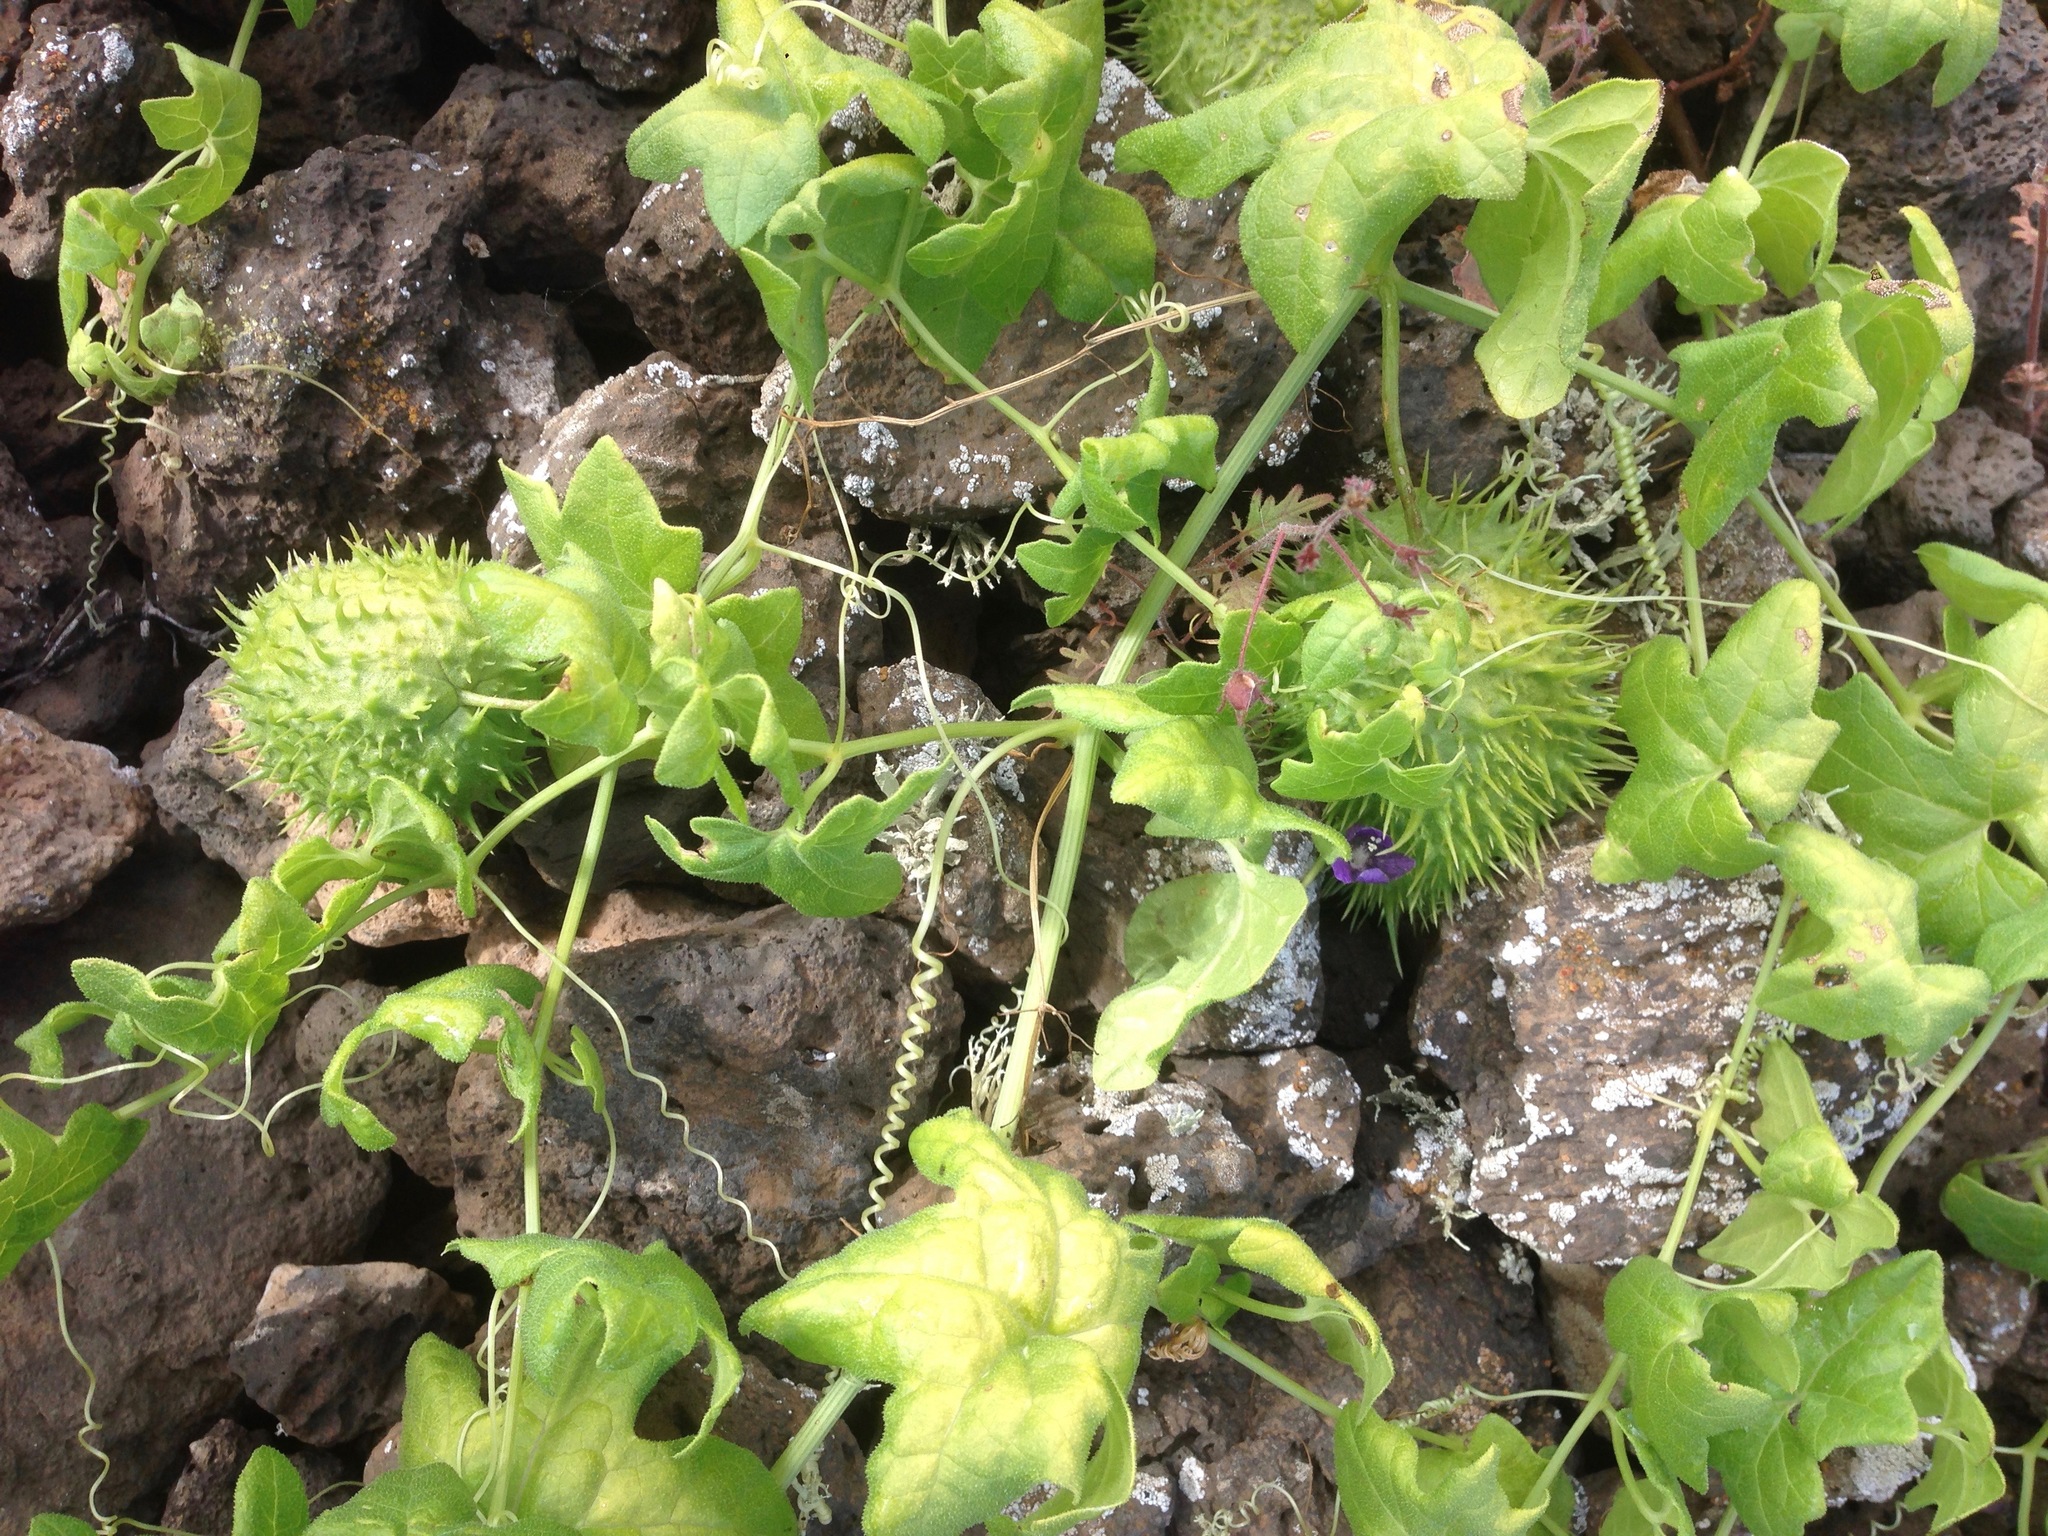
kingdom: Plantae
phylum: Tracheophyta
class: Magnoliopsida
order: Cucurbitales
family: Cucurbitaceae
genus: Marah
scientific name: Marah macrocarpa
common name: Cucamonga manroot
